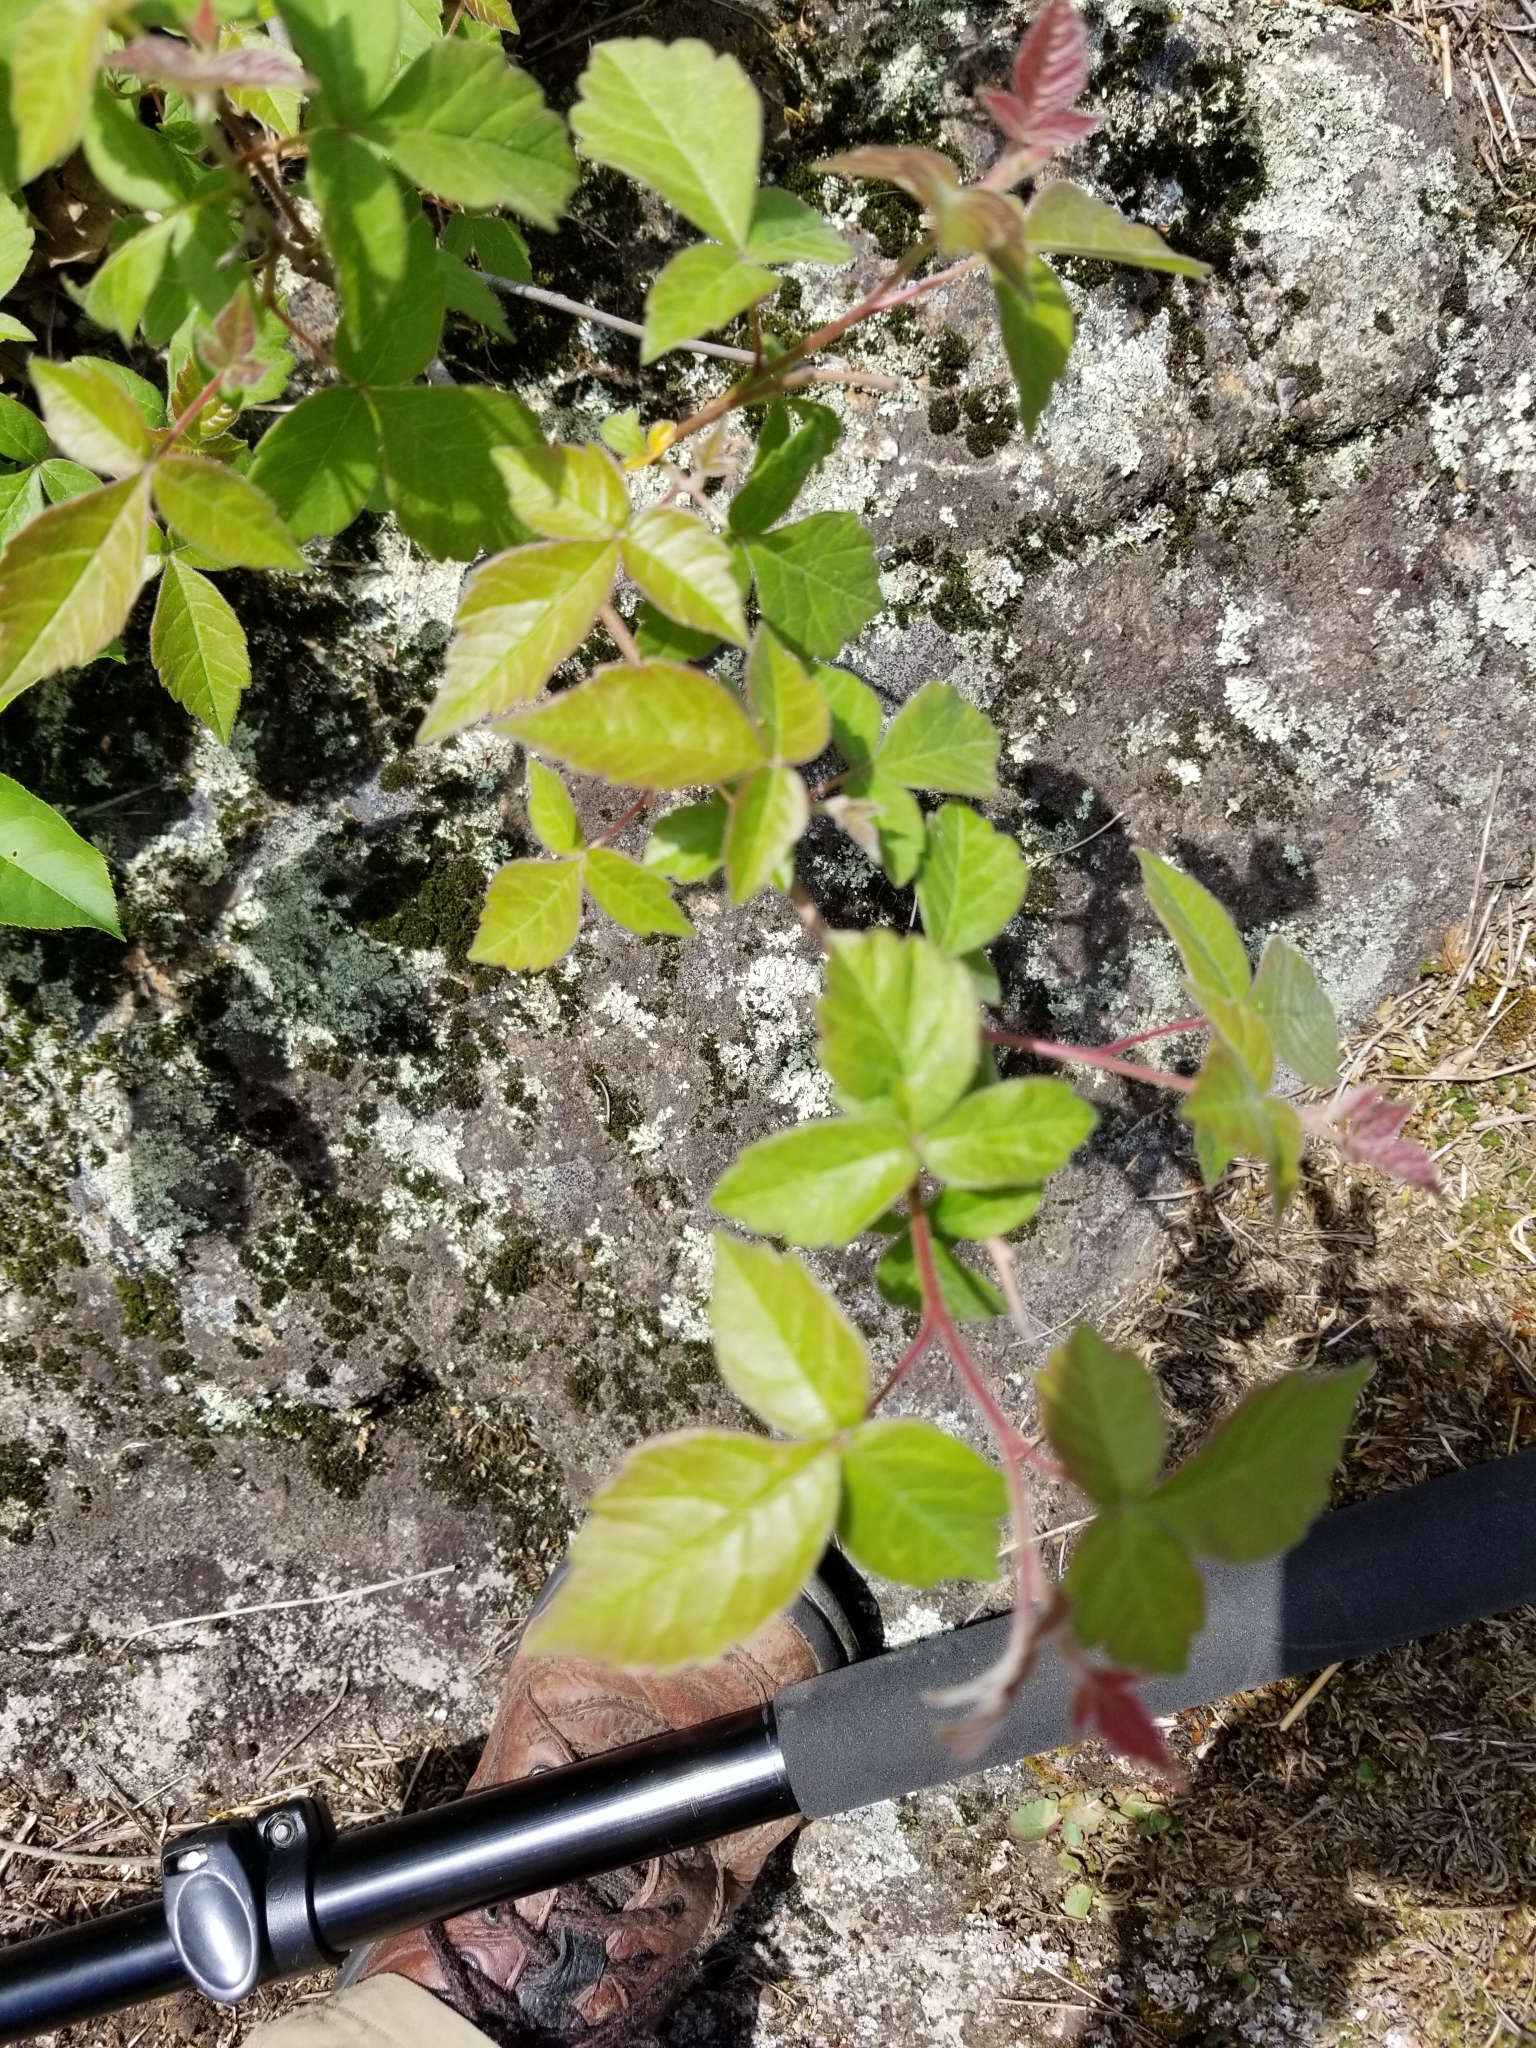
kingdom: Plantae
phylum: Tracheophyta
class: Magnoliopsida
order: Sapindales
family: Anacardiaceae
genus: Rhus
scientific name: Rhus aromatica
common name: Aromatic sumac
